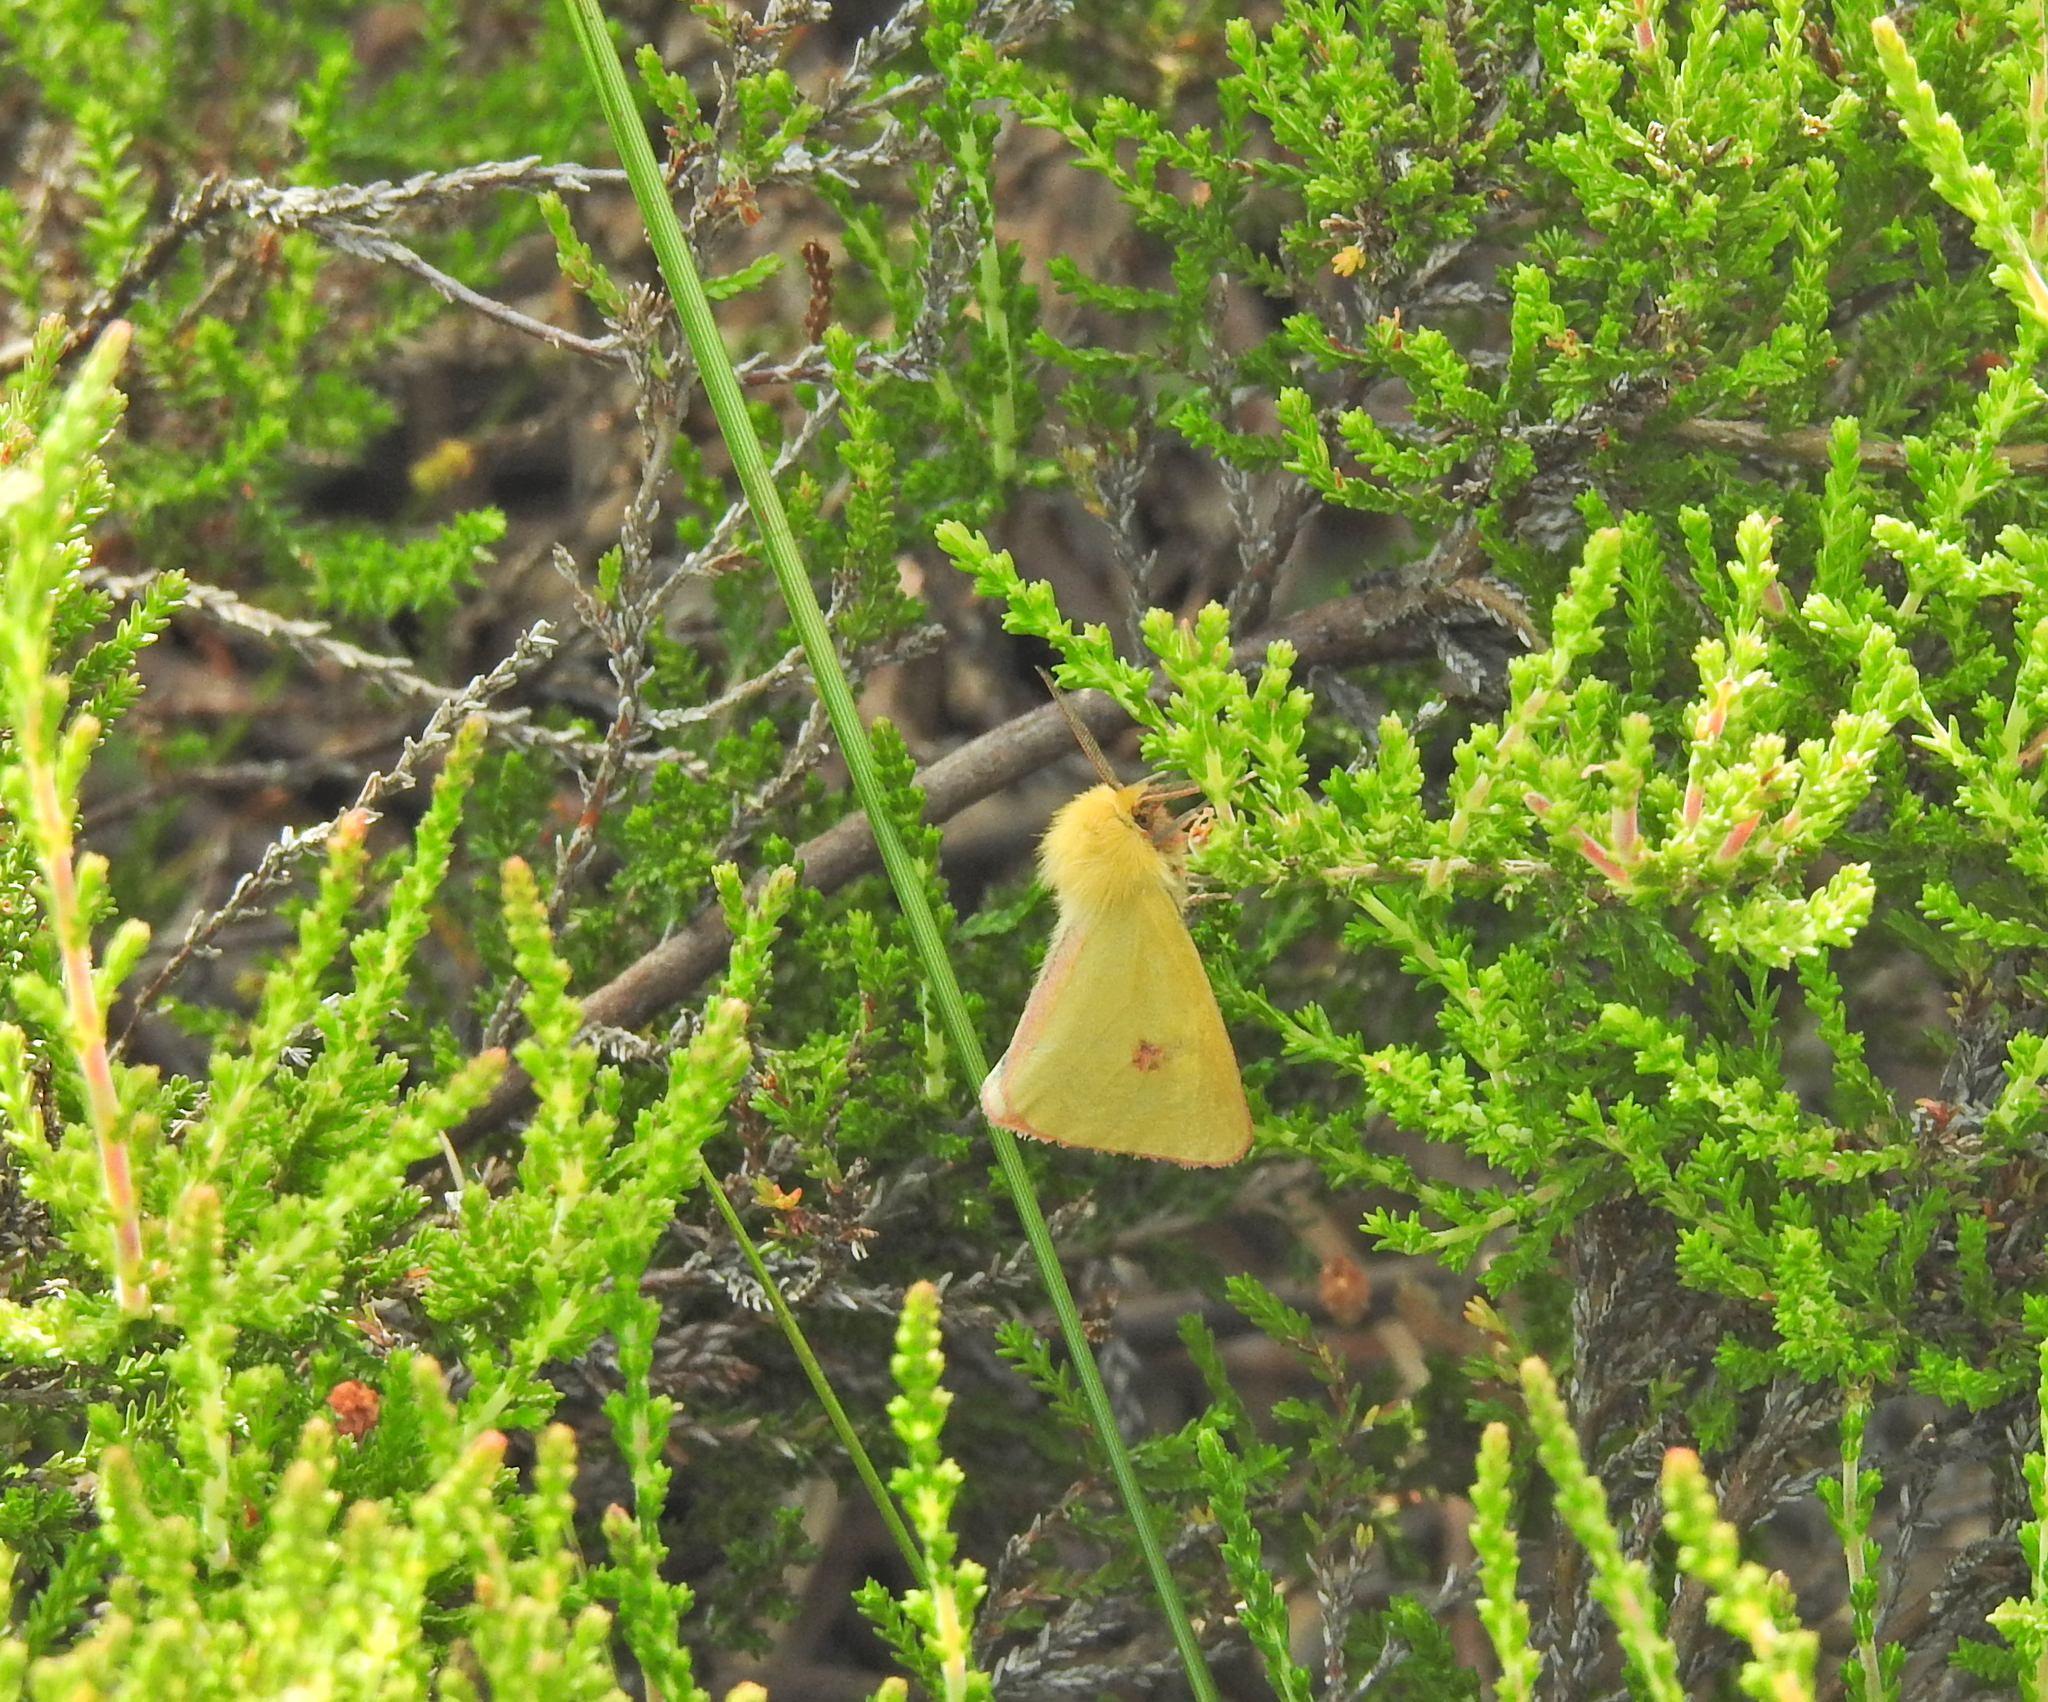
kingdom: Animalia
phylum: Arthropoda
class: Insecta
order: Lepidoptera
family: Erebidae
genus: Diacrisia
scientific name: Diacrisia sannio
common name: Clouded buff
